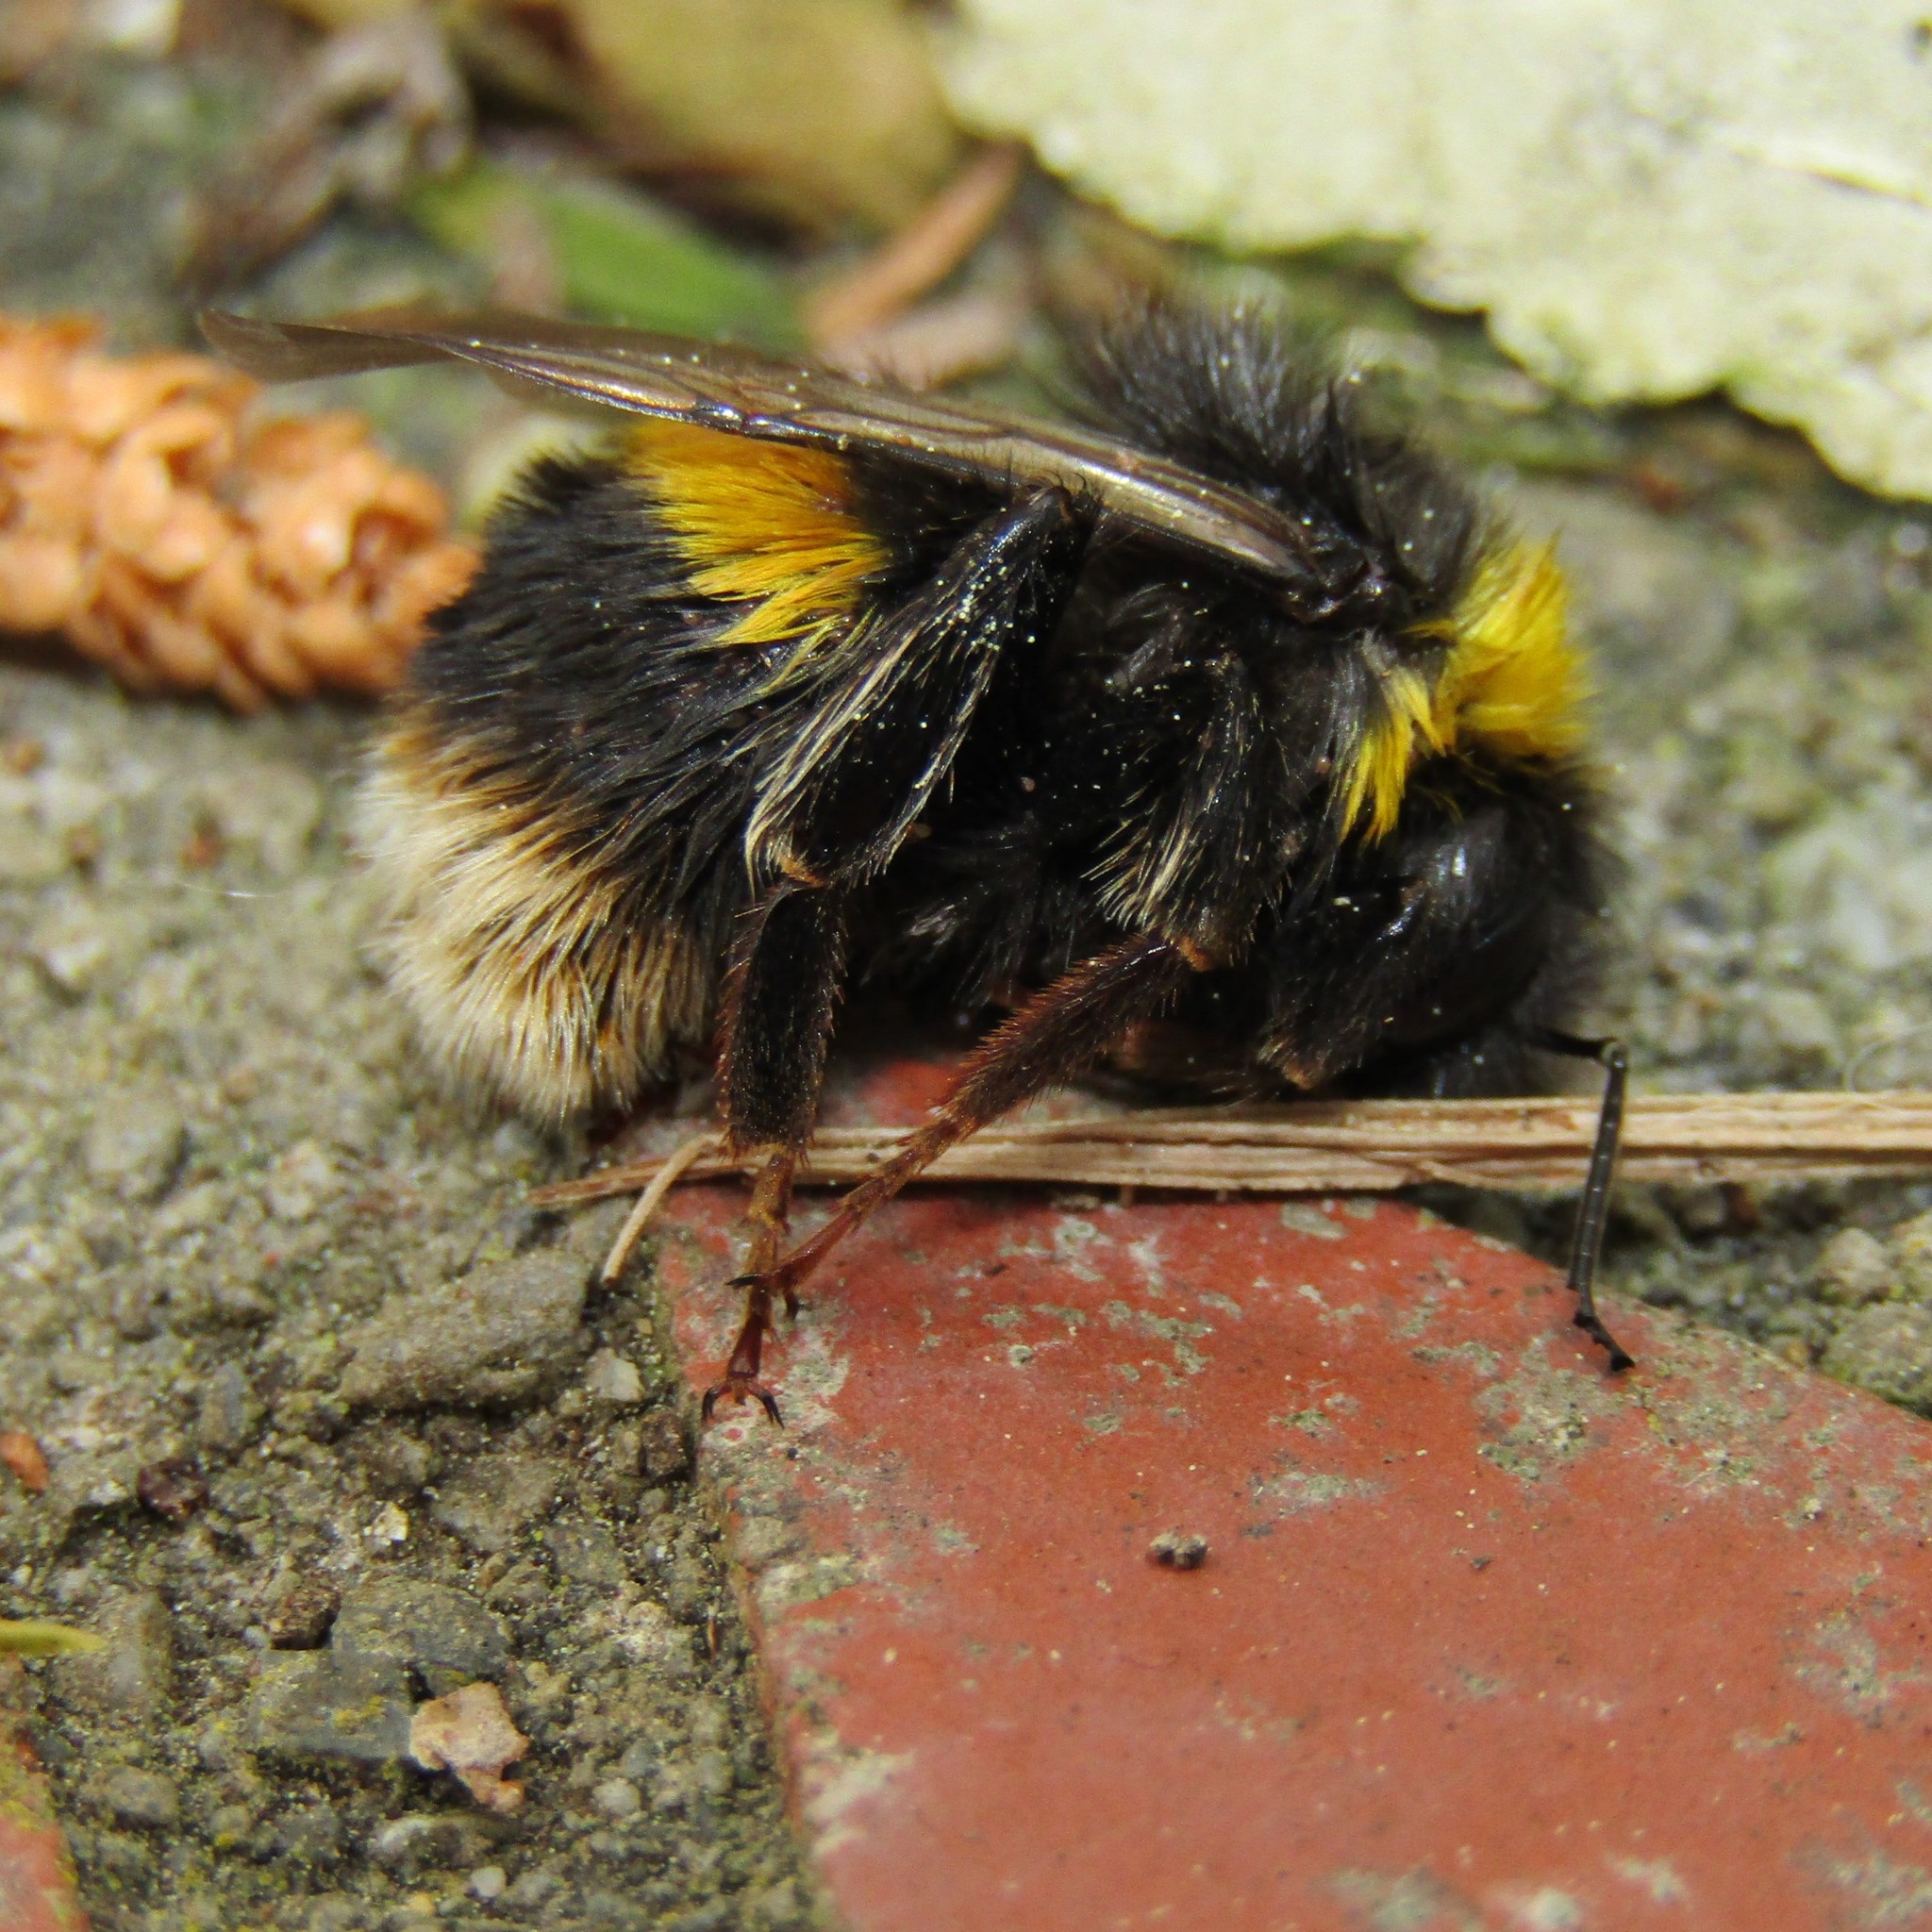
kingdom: Animalia
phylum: Arthropoda
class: Insecta
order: Hymenoptera
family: Apidae
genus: Bombus
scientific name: Bombus terrestris
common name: Buff-tailed bumblebee
